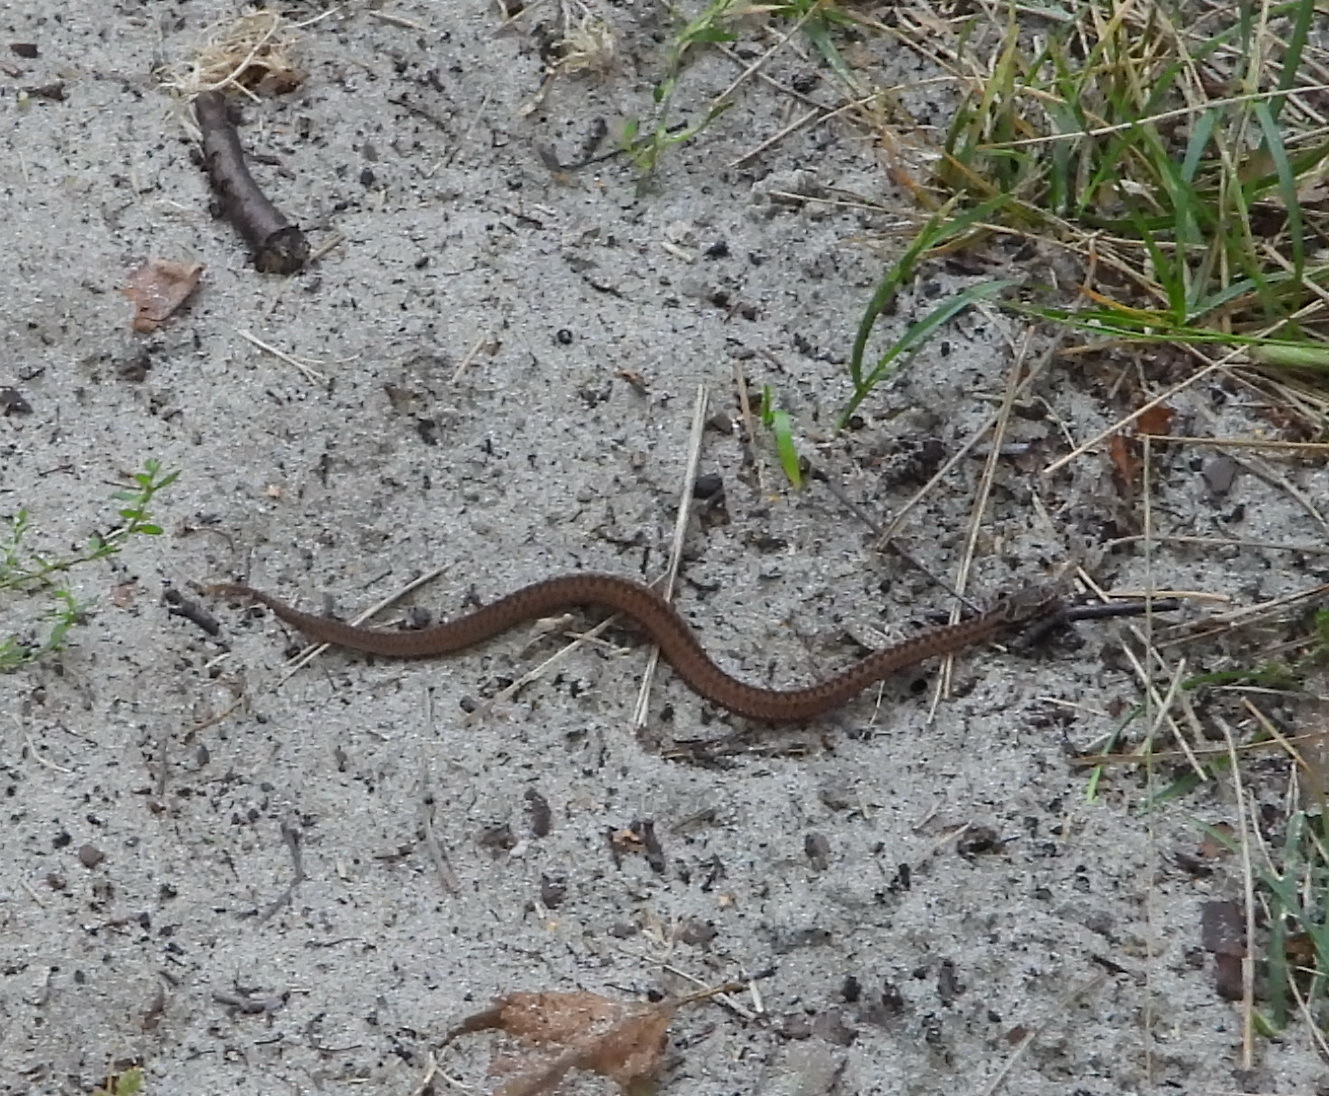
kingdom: Animalia
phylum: Chordata
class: Squamata
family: Viperidae
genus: Vipera
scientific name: Vipera berus
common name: Adder
